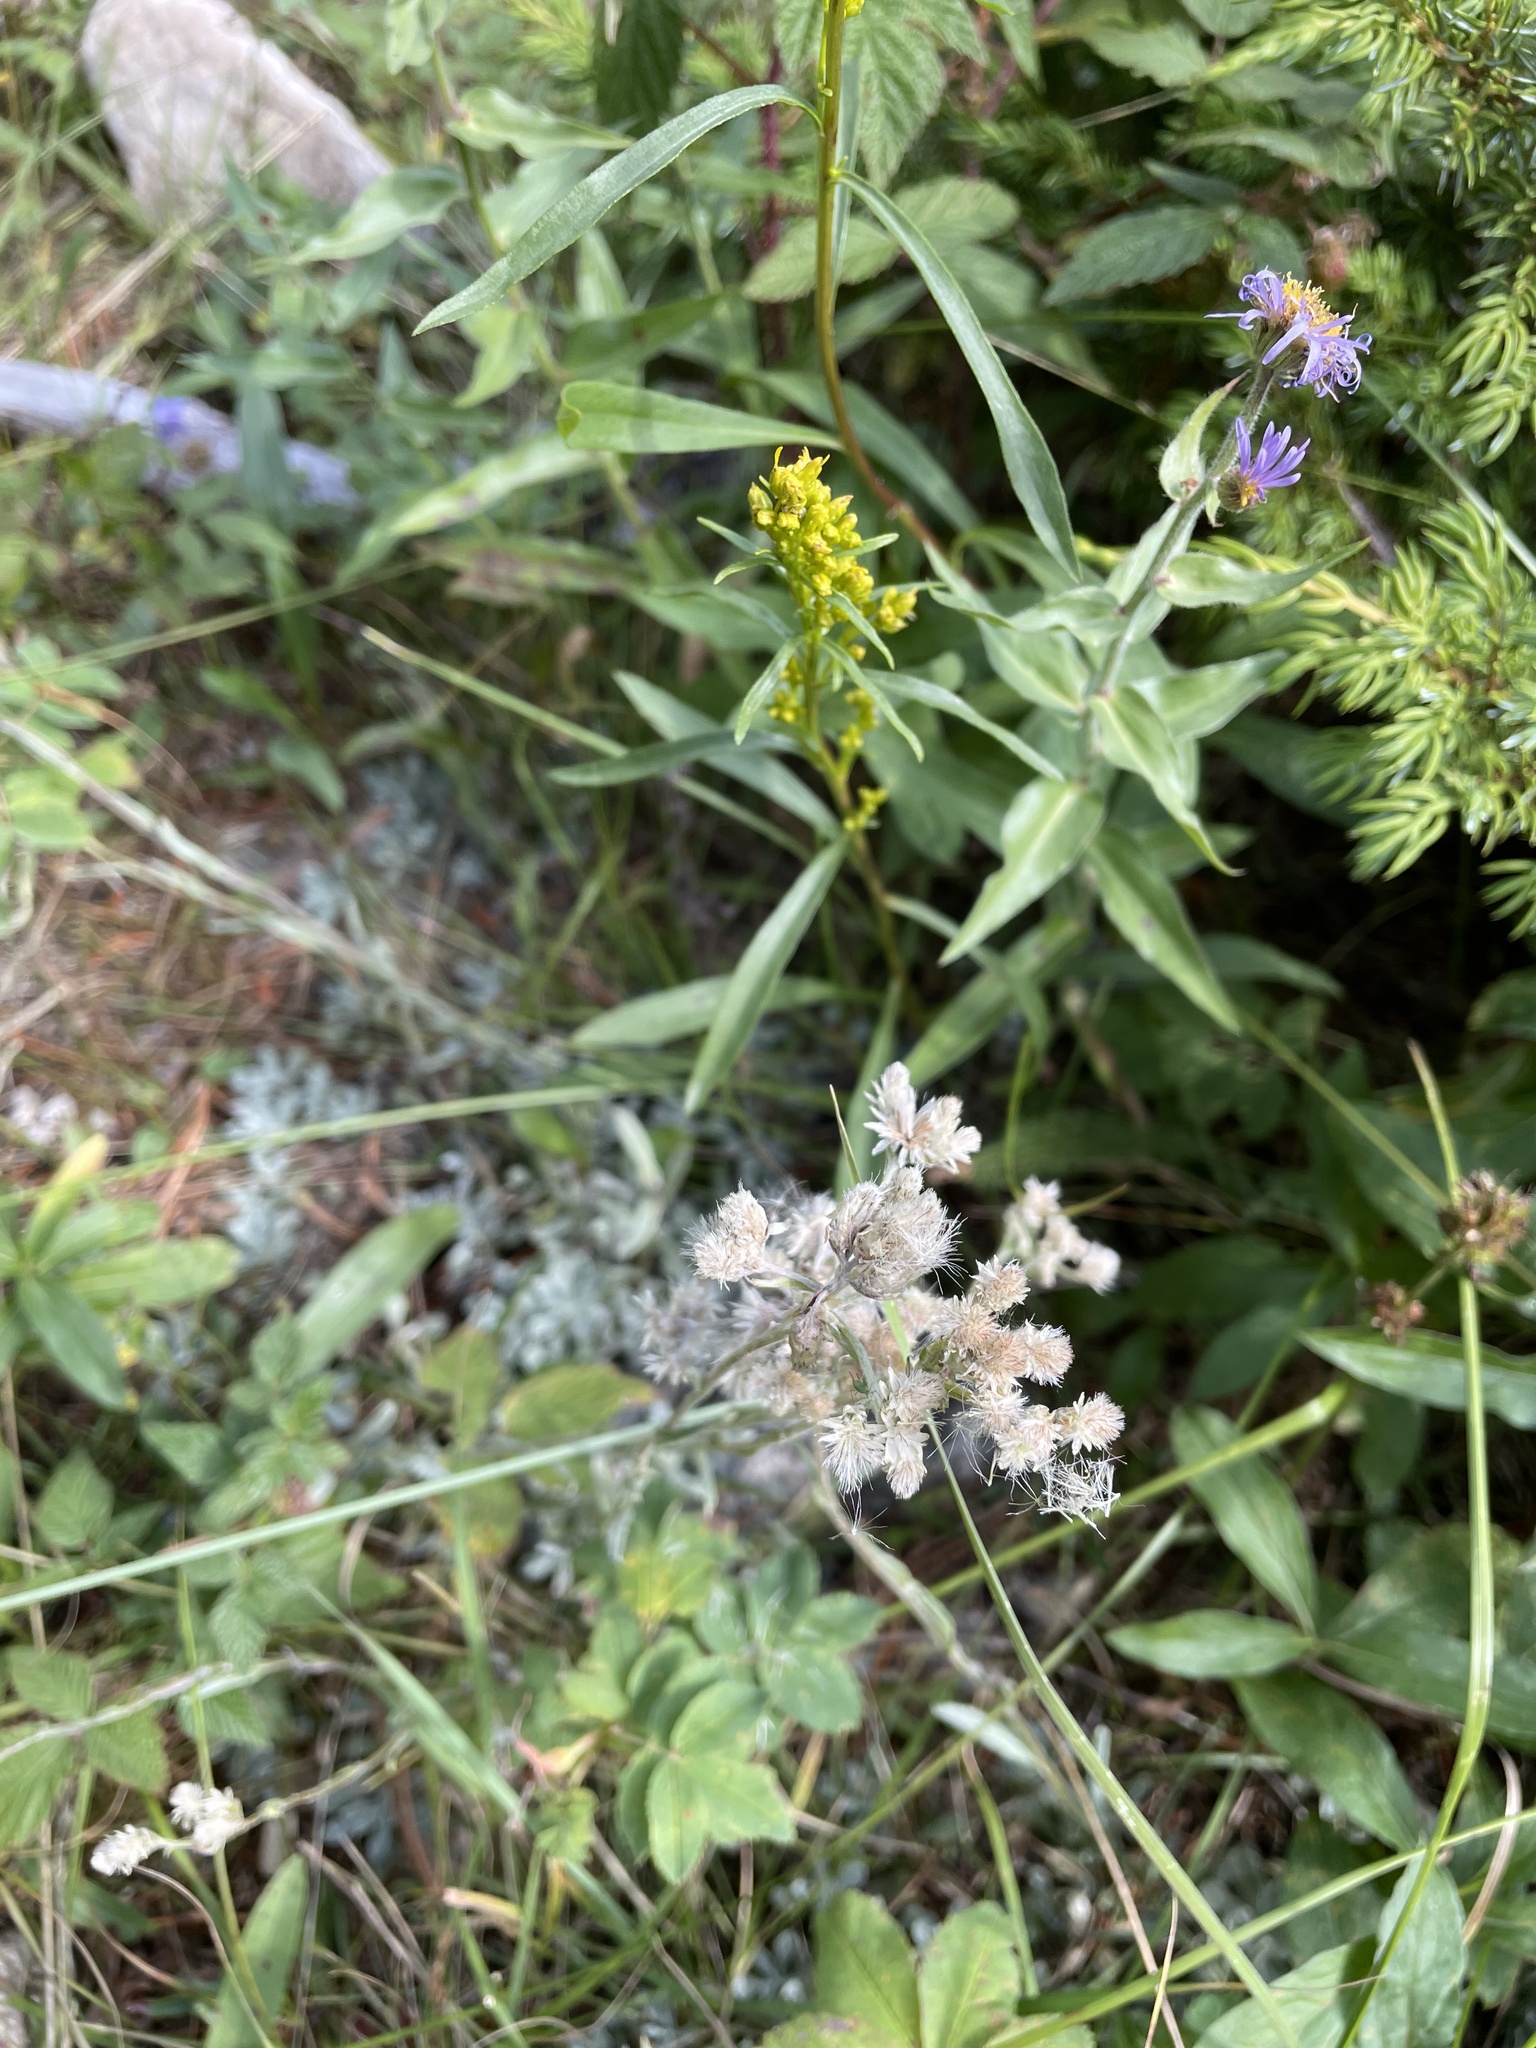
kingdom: Plantae
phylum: Tracheophyta
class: Magnoliopsida
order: Asterales
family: Asteraceae
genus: Anaphalis
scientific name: Anaphalis margaritacea
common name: Pearly everlasting
